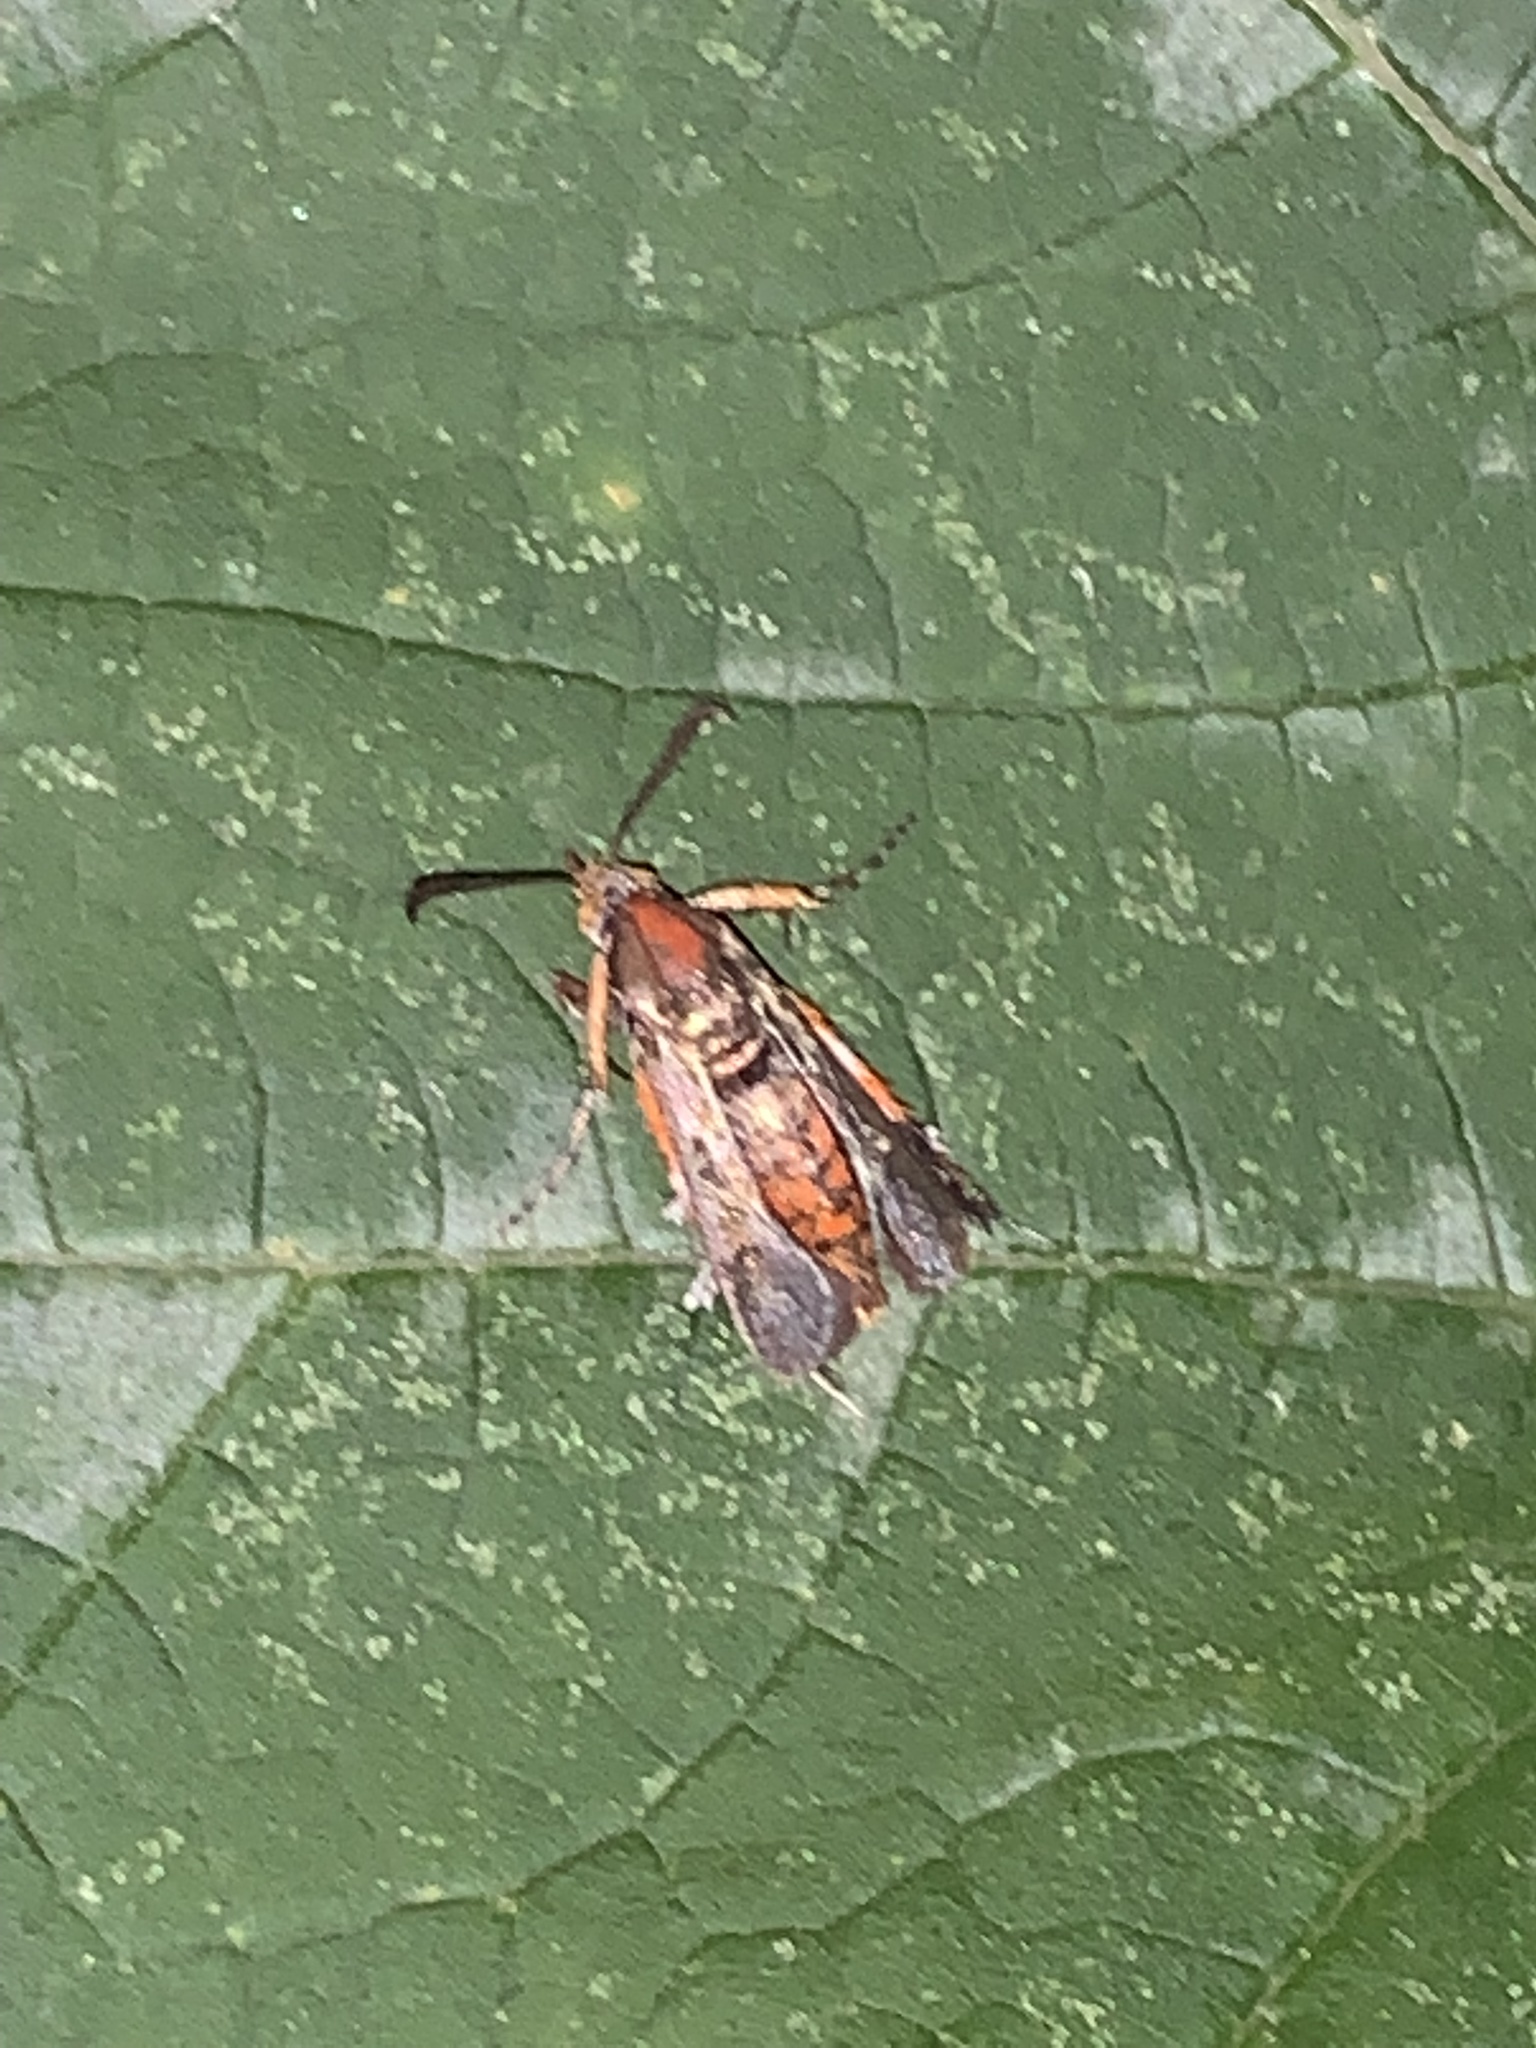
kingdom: Animalia
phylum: Arthropoda
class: Insecta
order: Lepidoptera
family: Sesiidae
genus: Eichlinia
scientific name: Eichlinia cucurbitae
